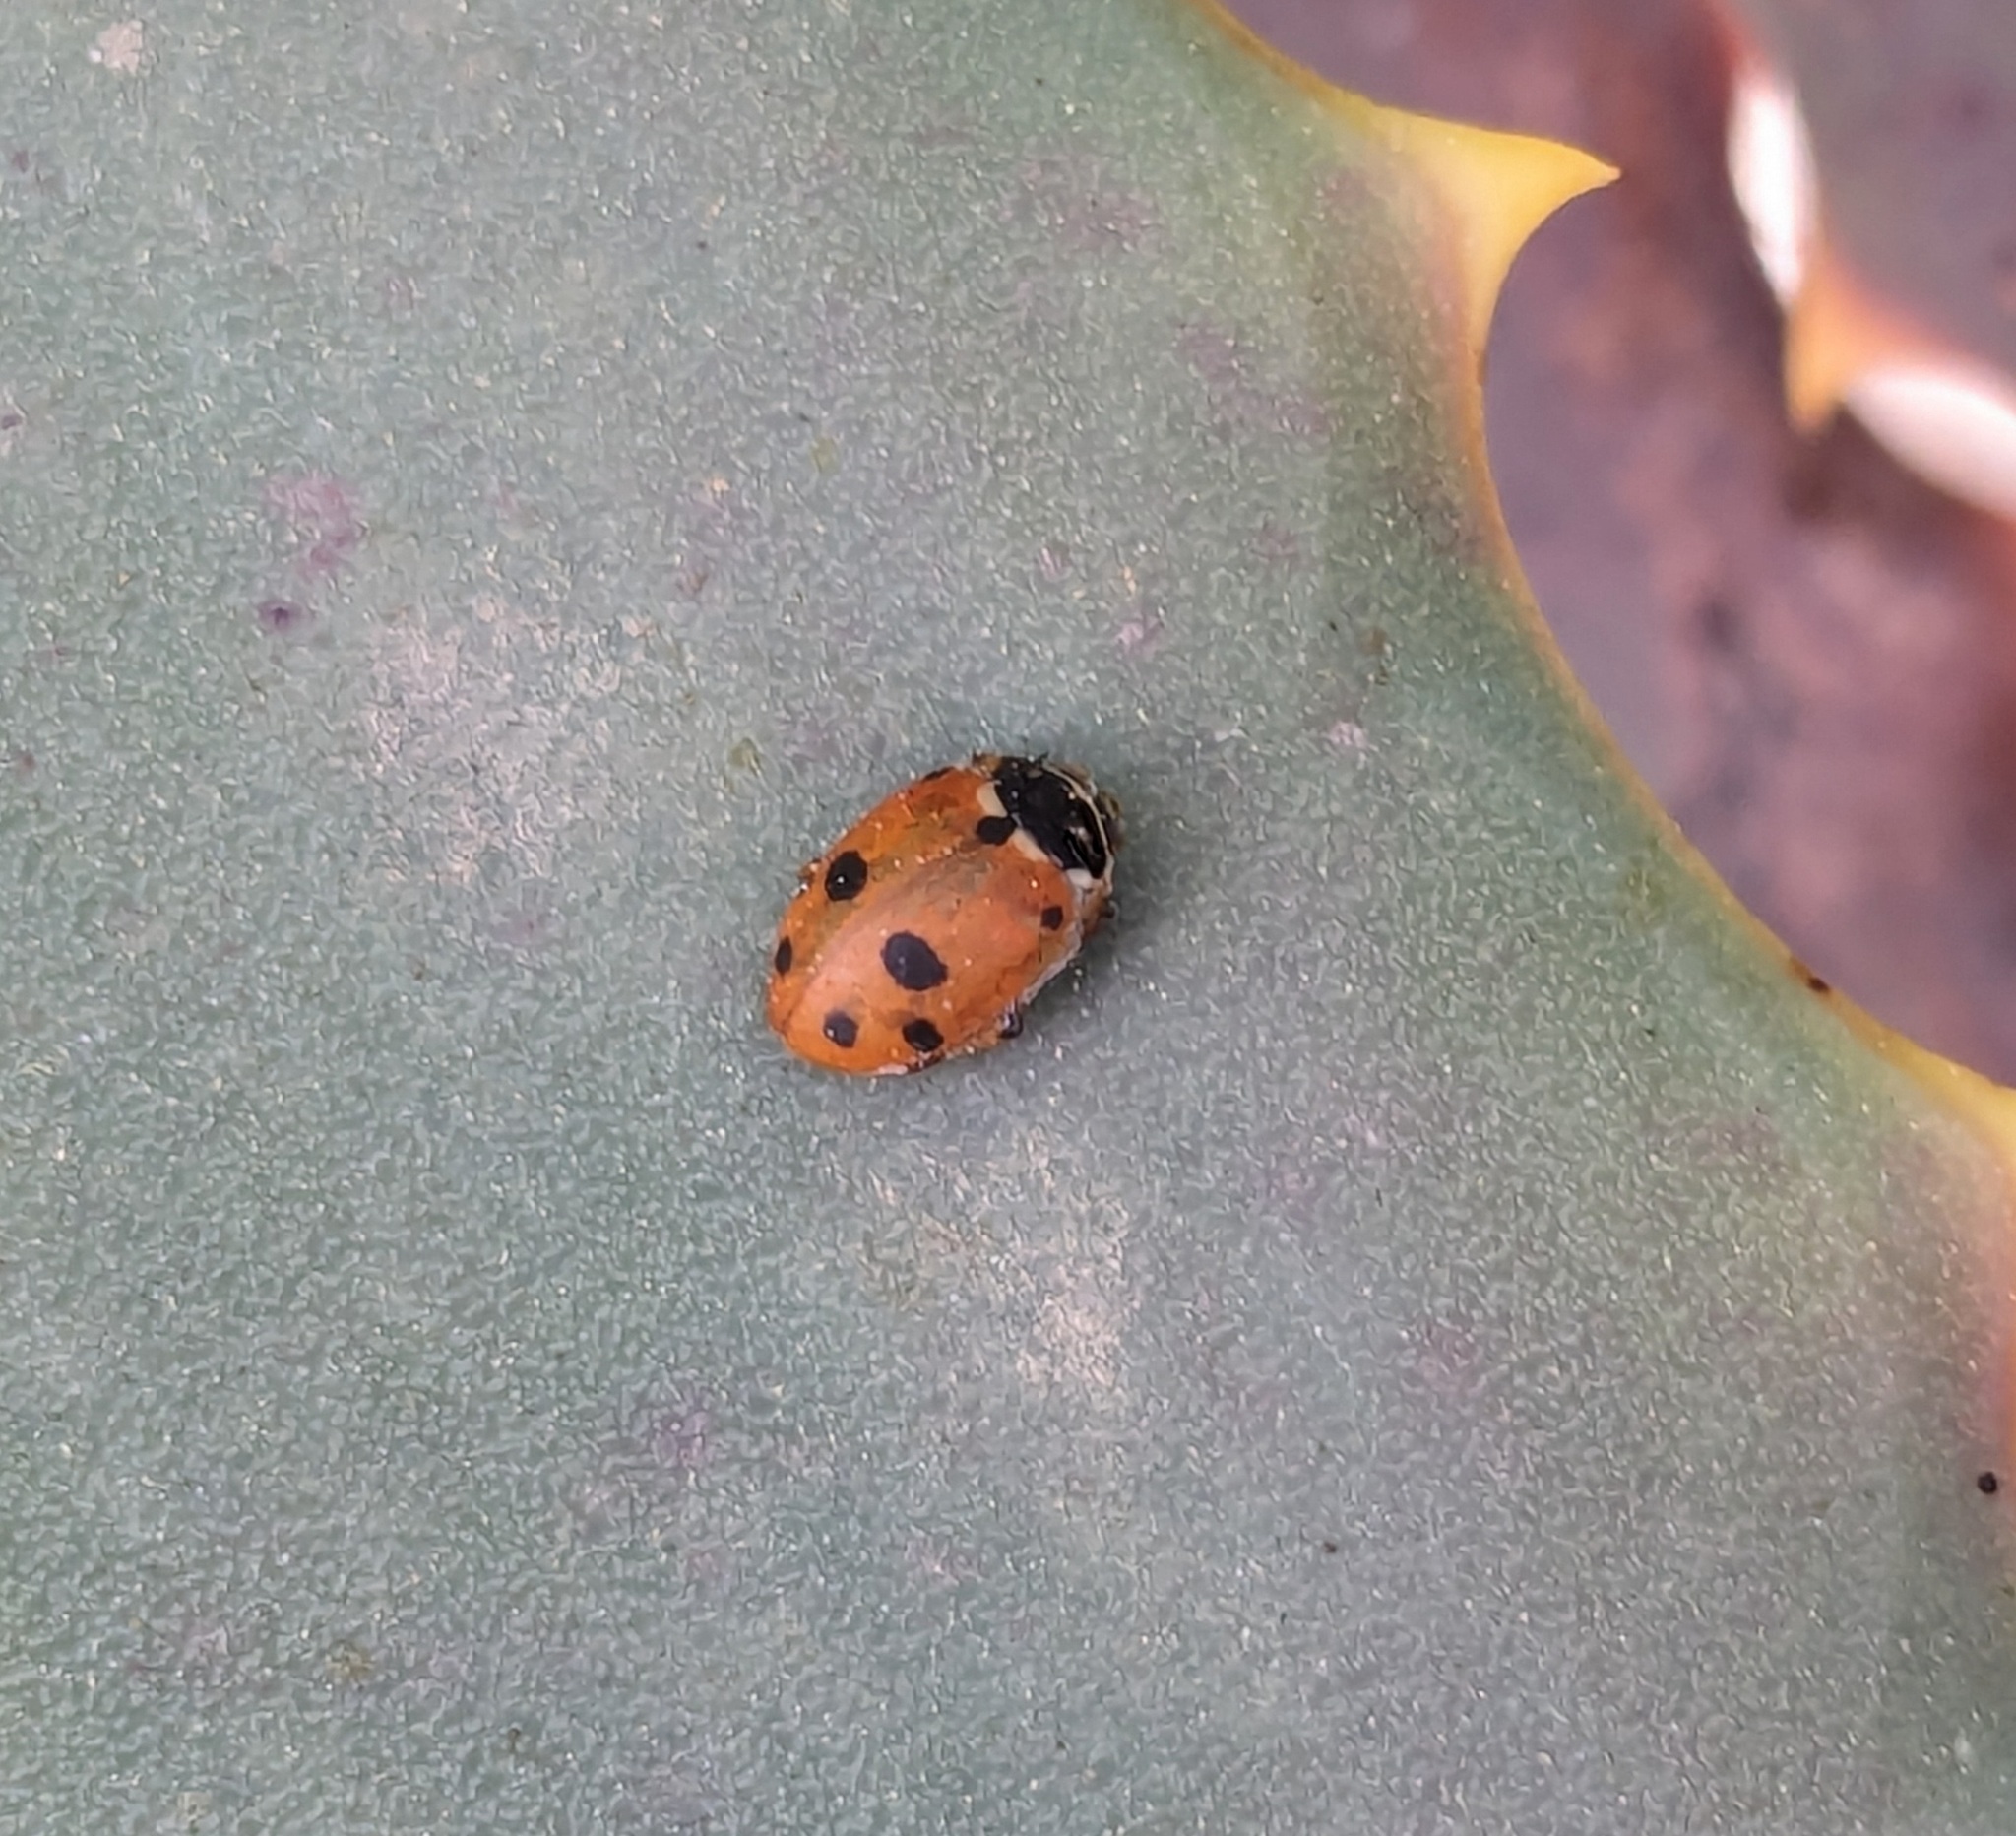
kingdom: Animalia
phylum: Arthropoda
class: Insecta
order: Coleoptera
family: Coccinellidae
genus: Hippodamia
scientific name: Hippodamia variegata
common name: Ladybird beetle
